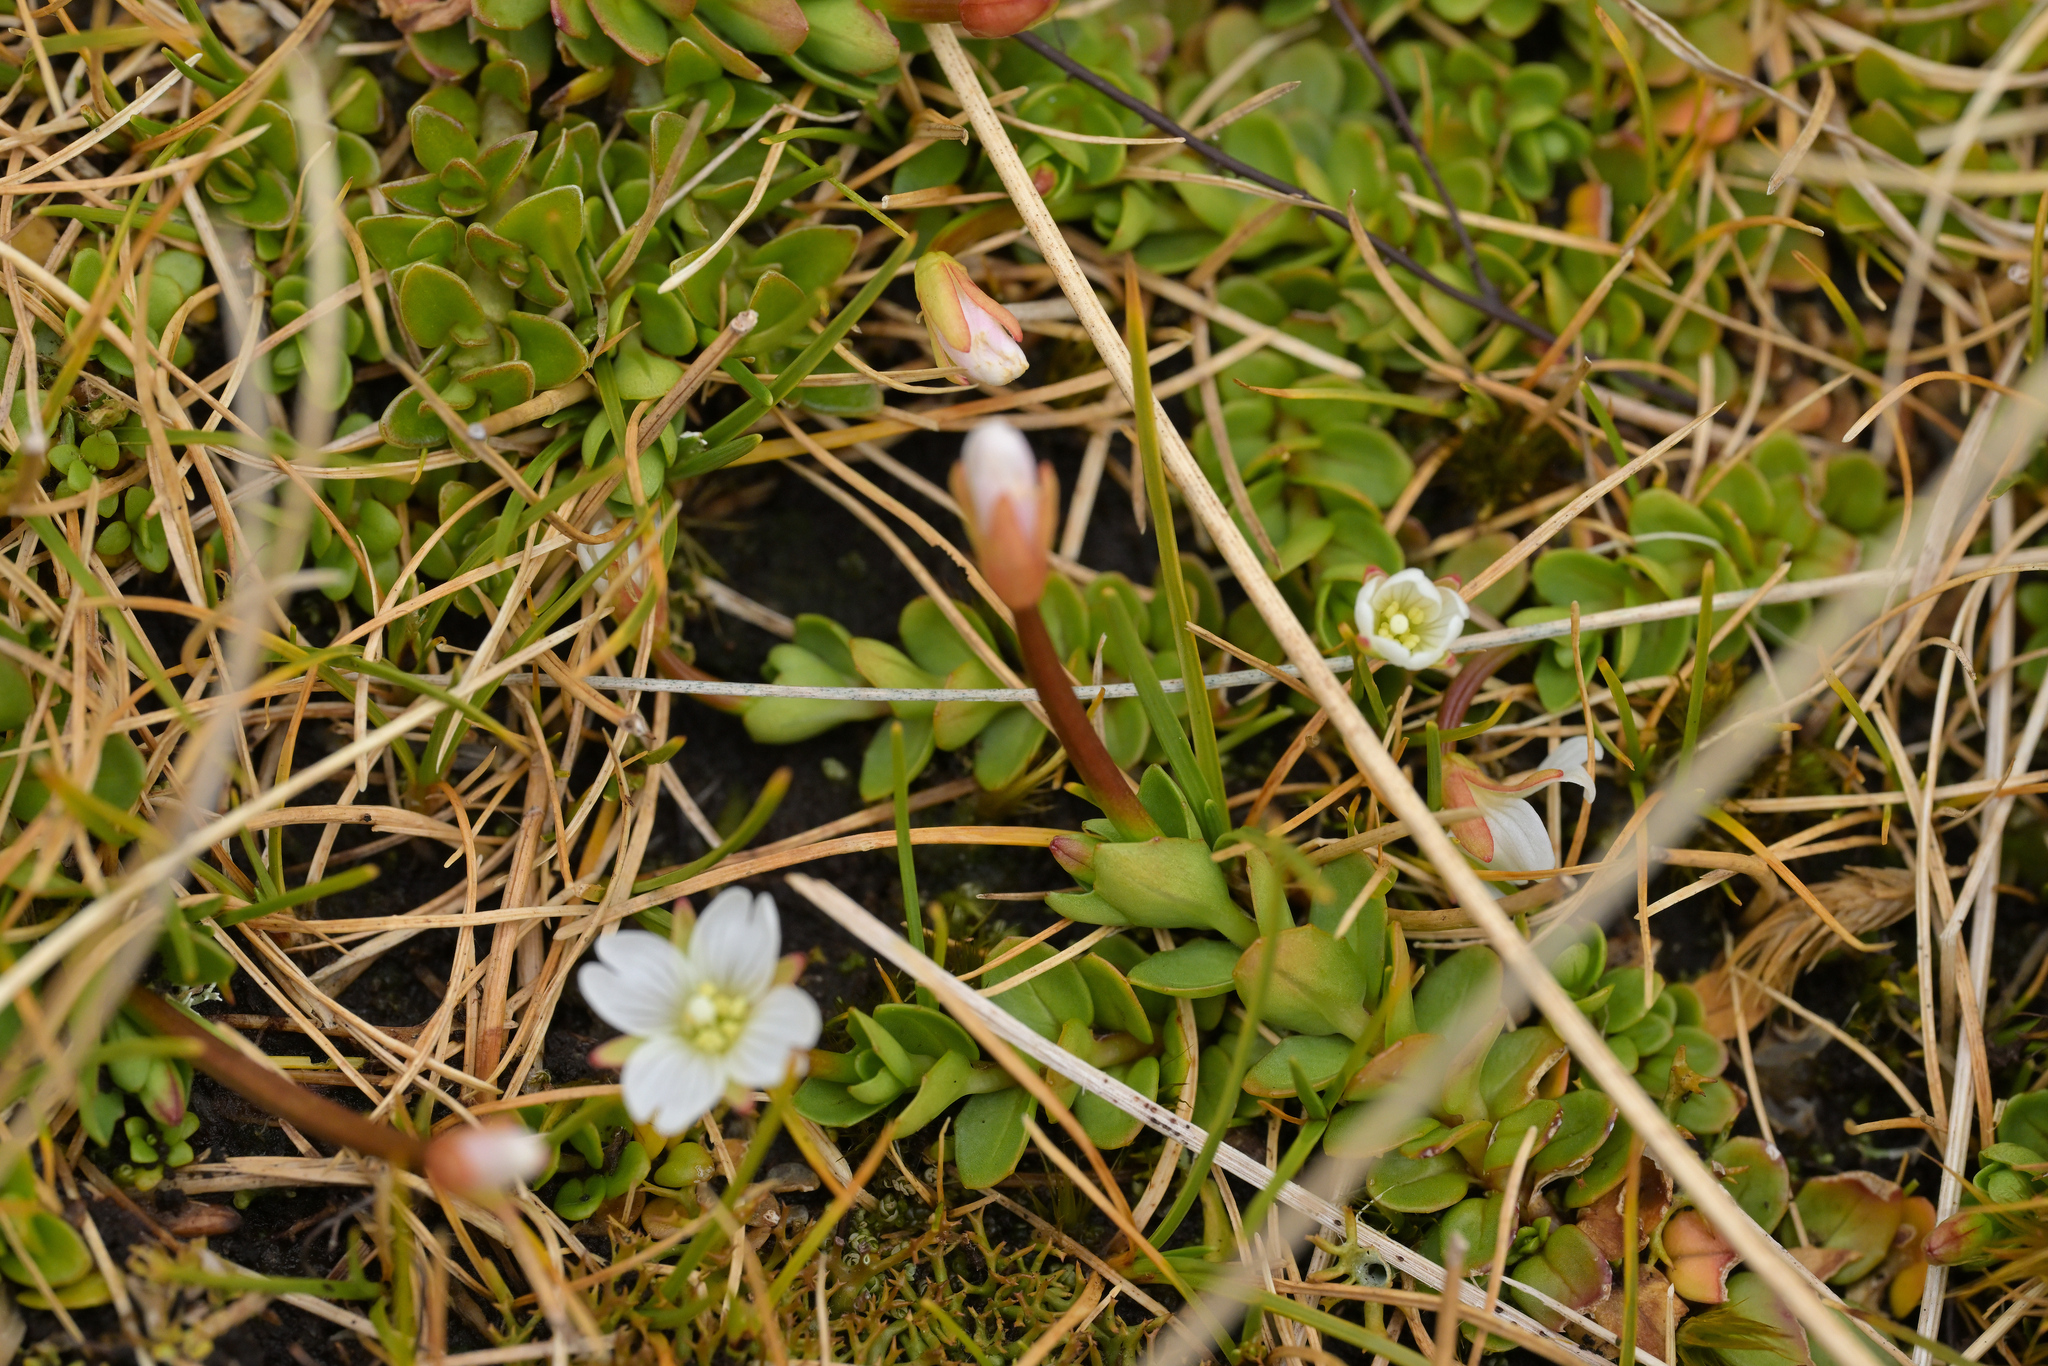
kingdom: Plantae
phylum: Tracheophyta
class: Magnoliopsida
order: Myrtales
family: Onagraceae
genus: Epilobium
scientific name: Epilobium confertifolium
